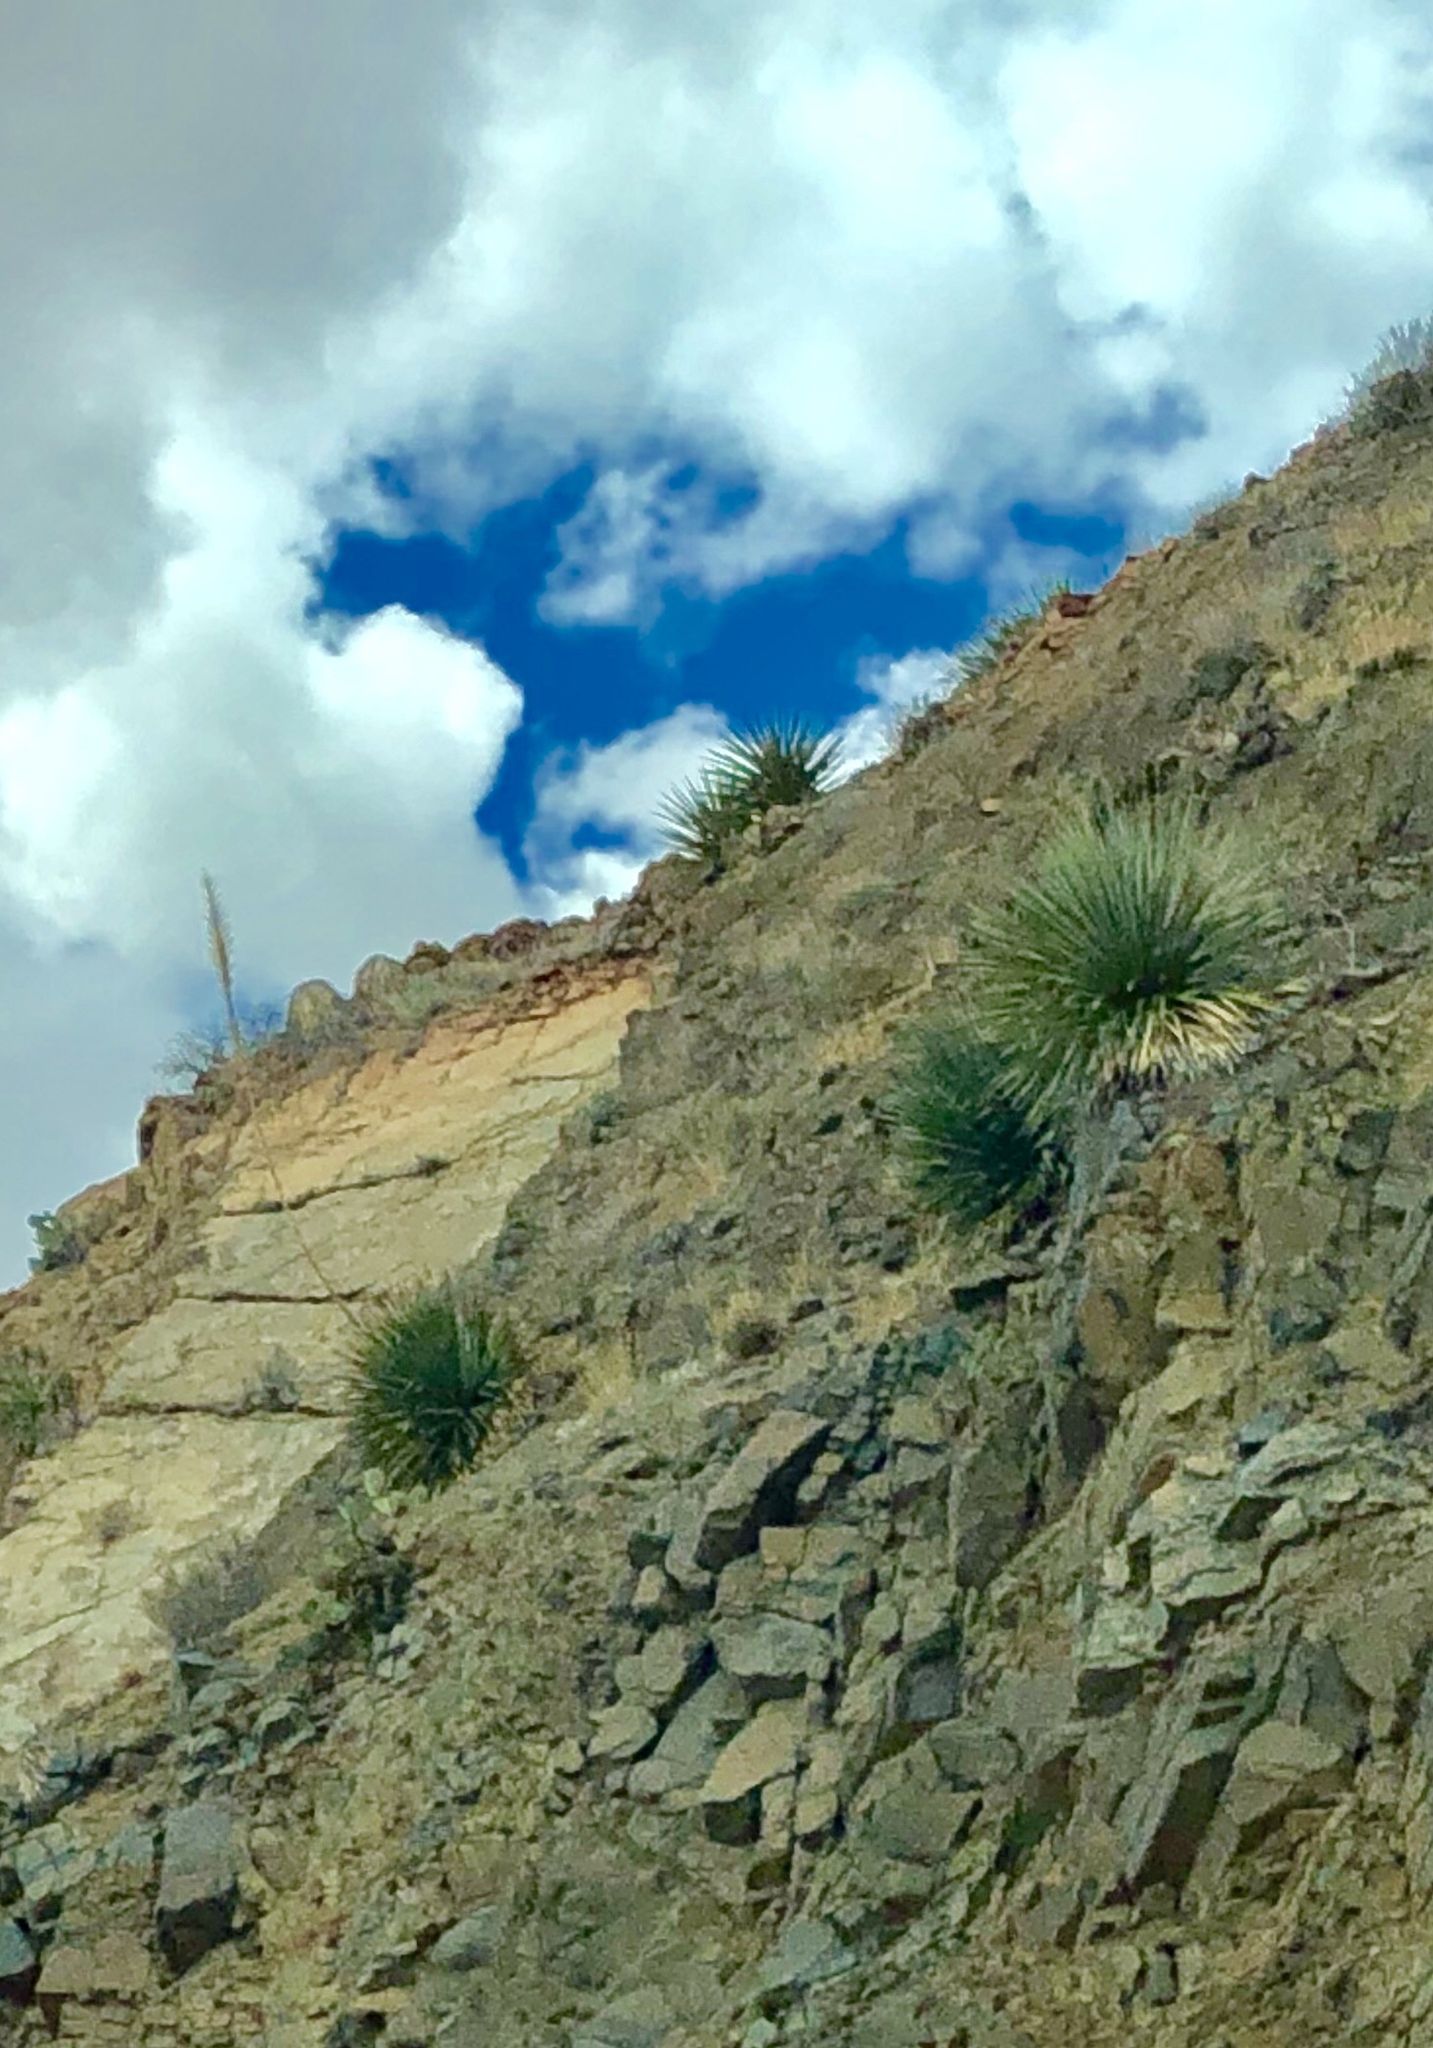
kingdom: Plantae
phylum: Tracheophyta
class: Liliopsida
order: Asparagales
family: Asparagaceae
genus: Dasylirion
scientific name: Dasylirion wheeleri
